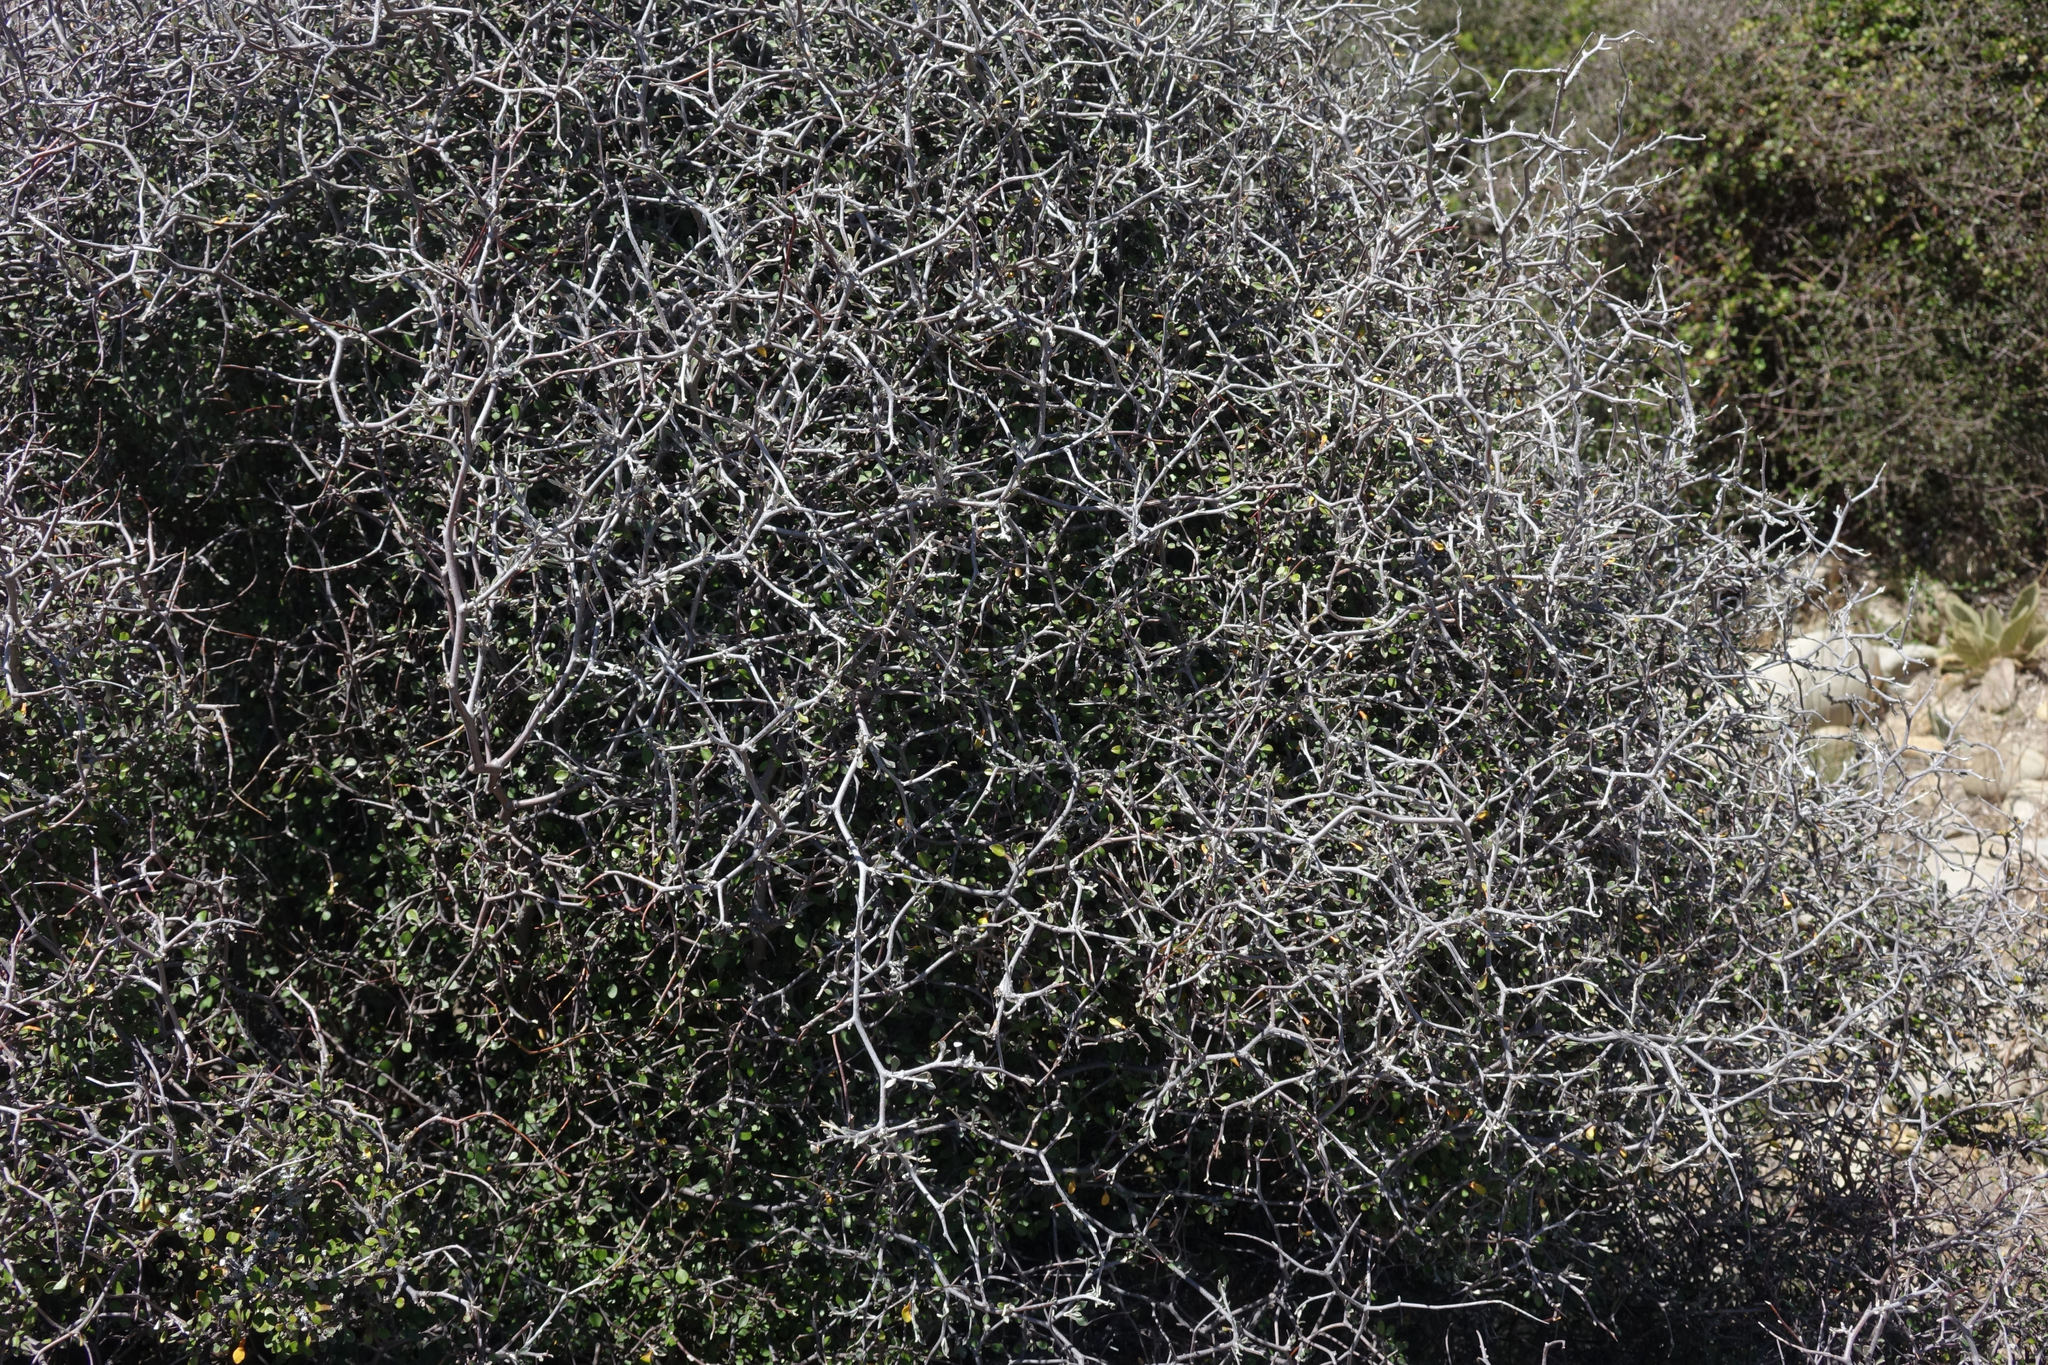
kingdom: Plantae
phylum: Tracheophyta
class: Magnoliopsida
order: Asterales
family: Argophyllaceae
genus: Corokia
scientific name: Corokia cotoneaster
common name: Wire nettingbush
